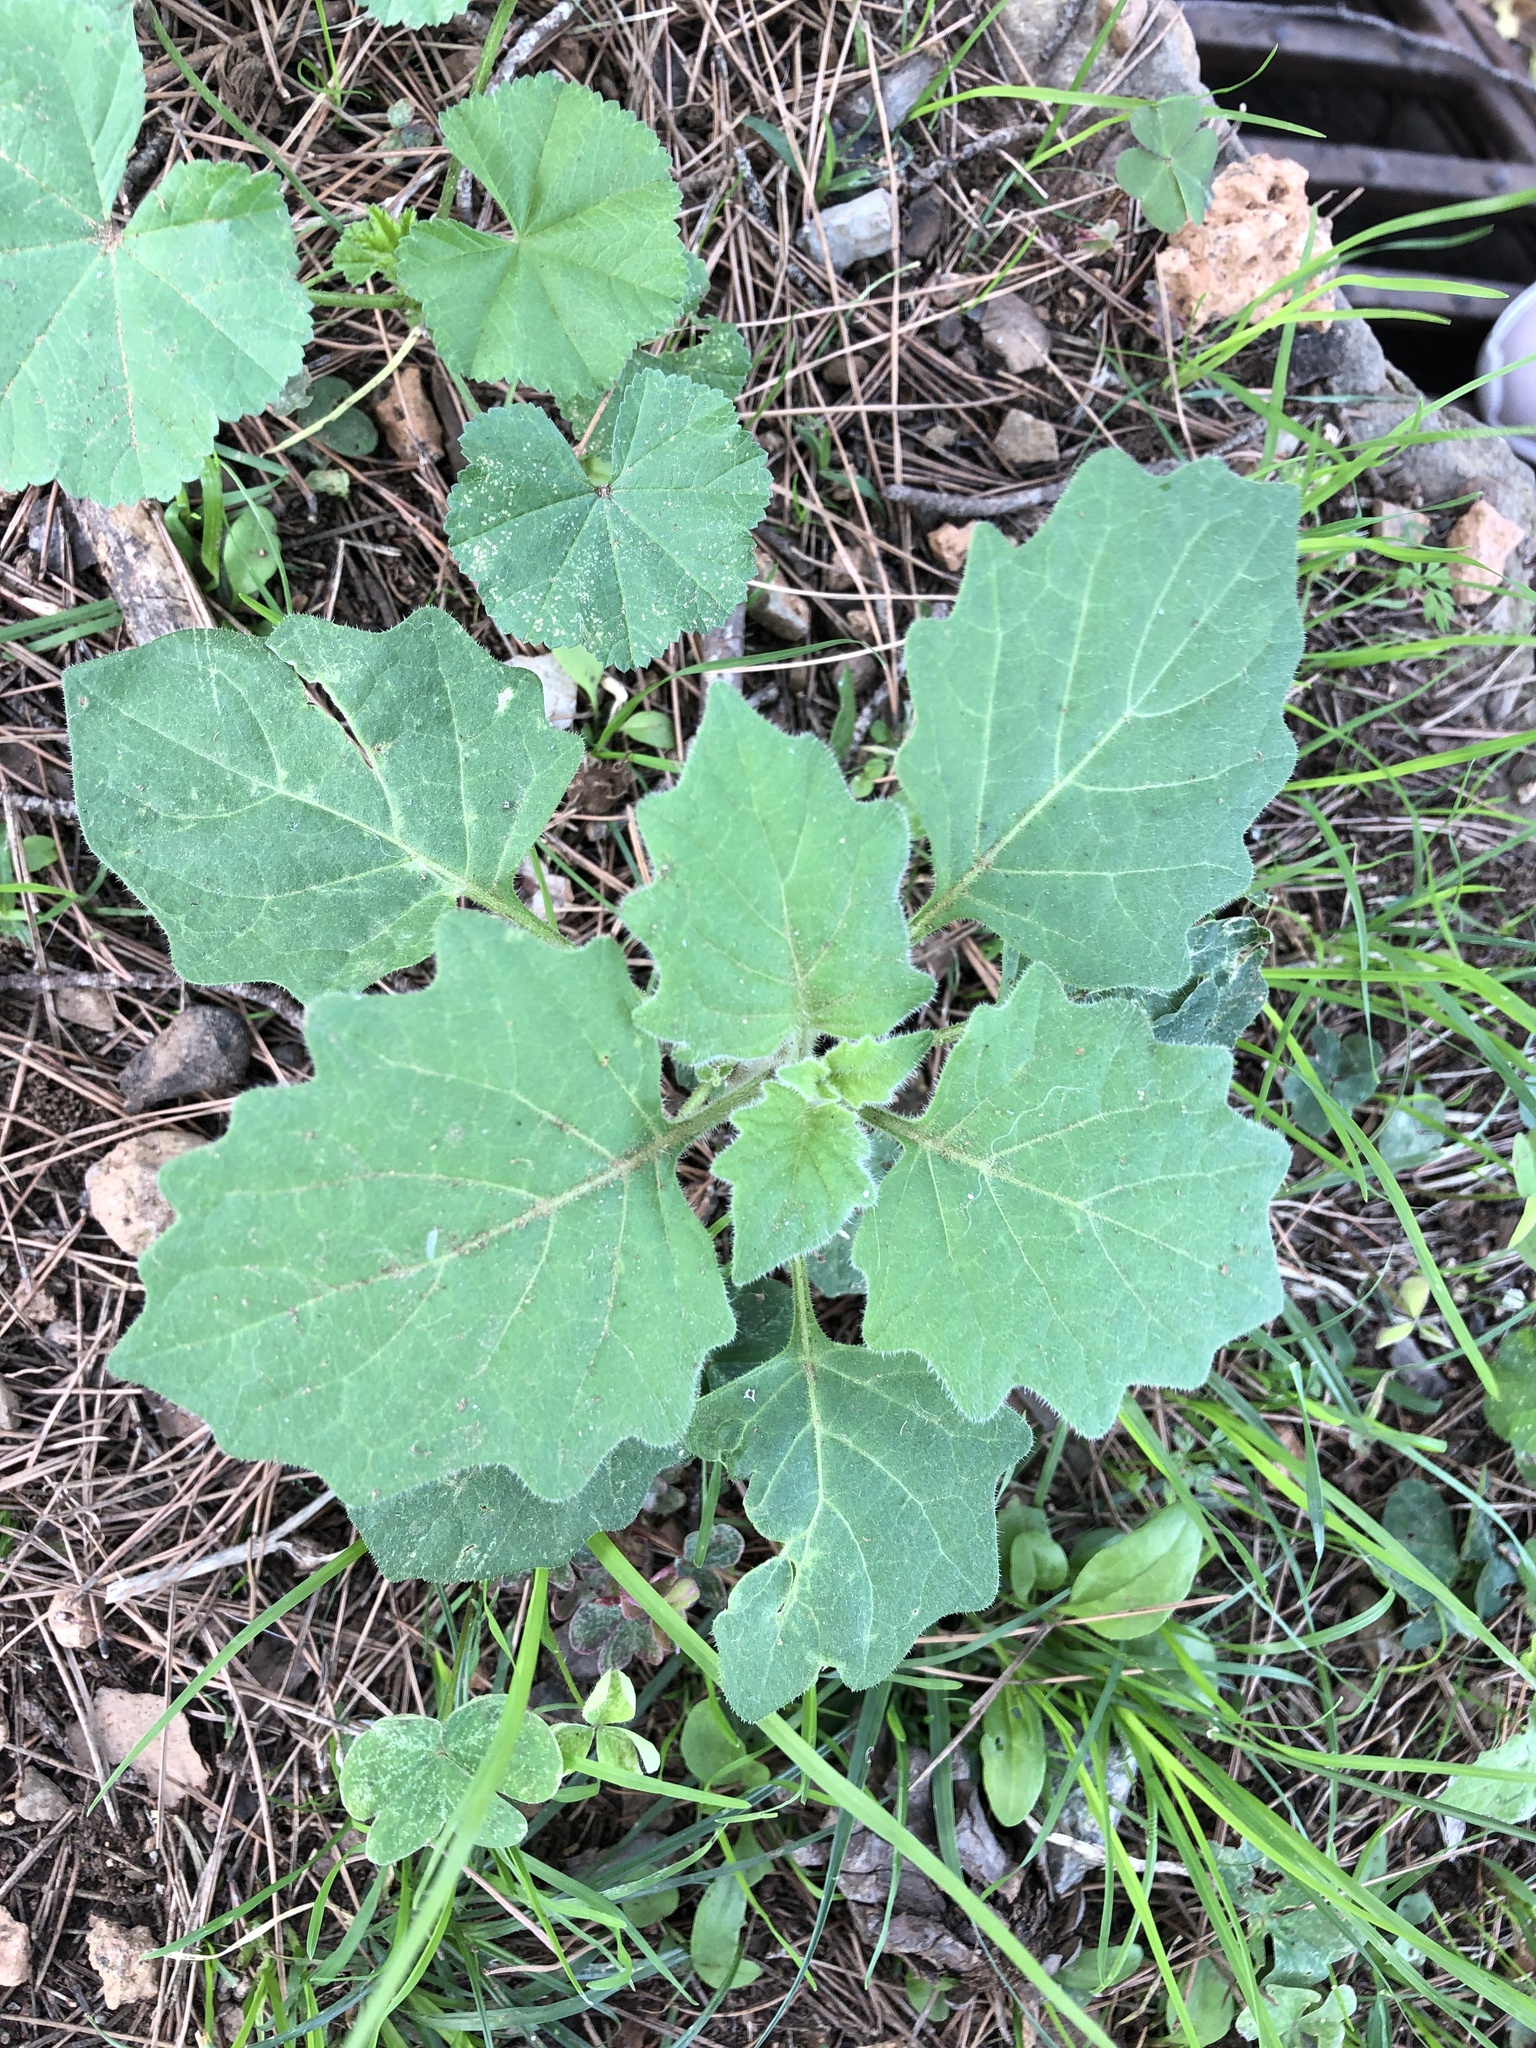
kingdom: Plantae
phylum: Tracheophyta
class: Magnoliopsida
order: Solanales
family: Solanaceae
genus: Solanum
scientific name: Solanum
